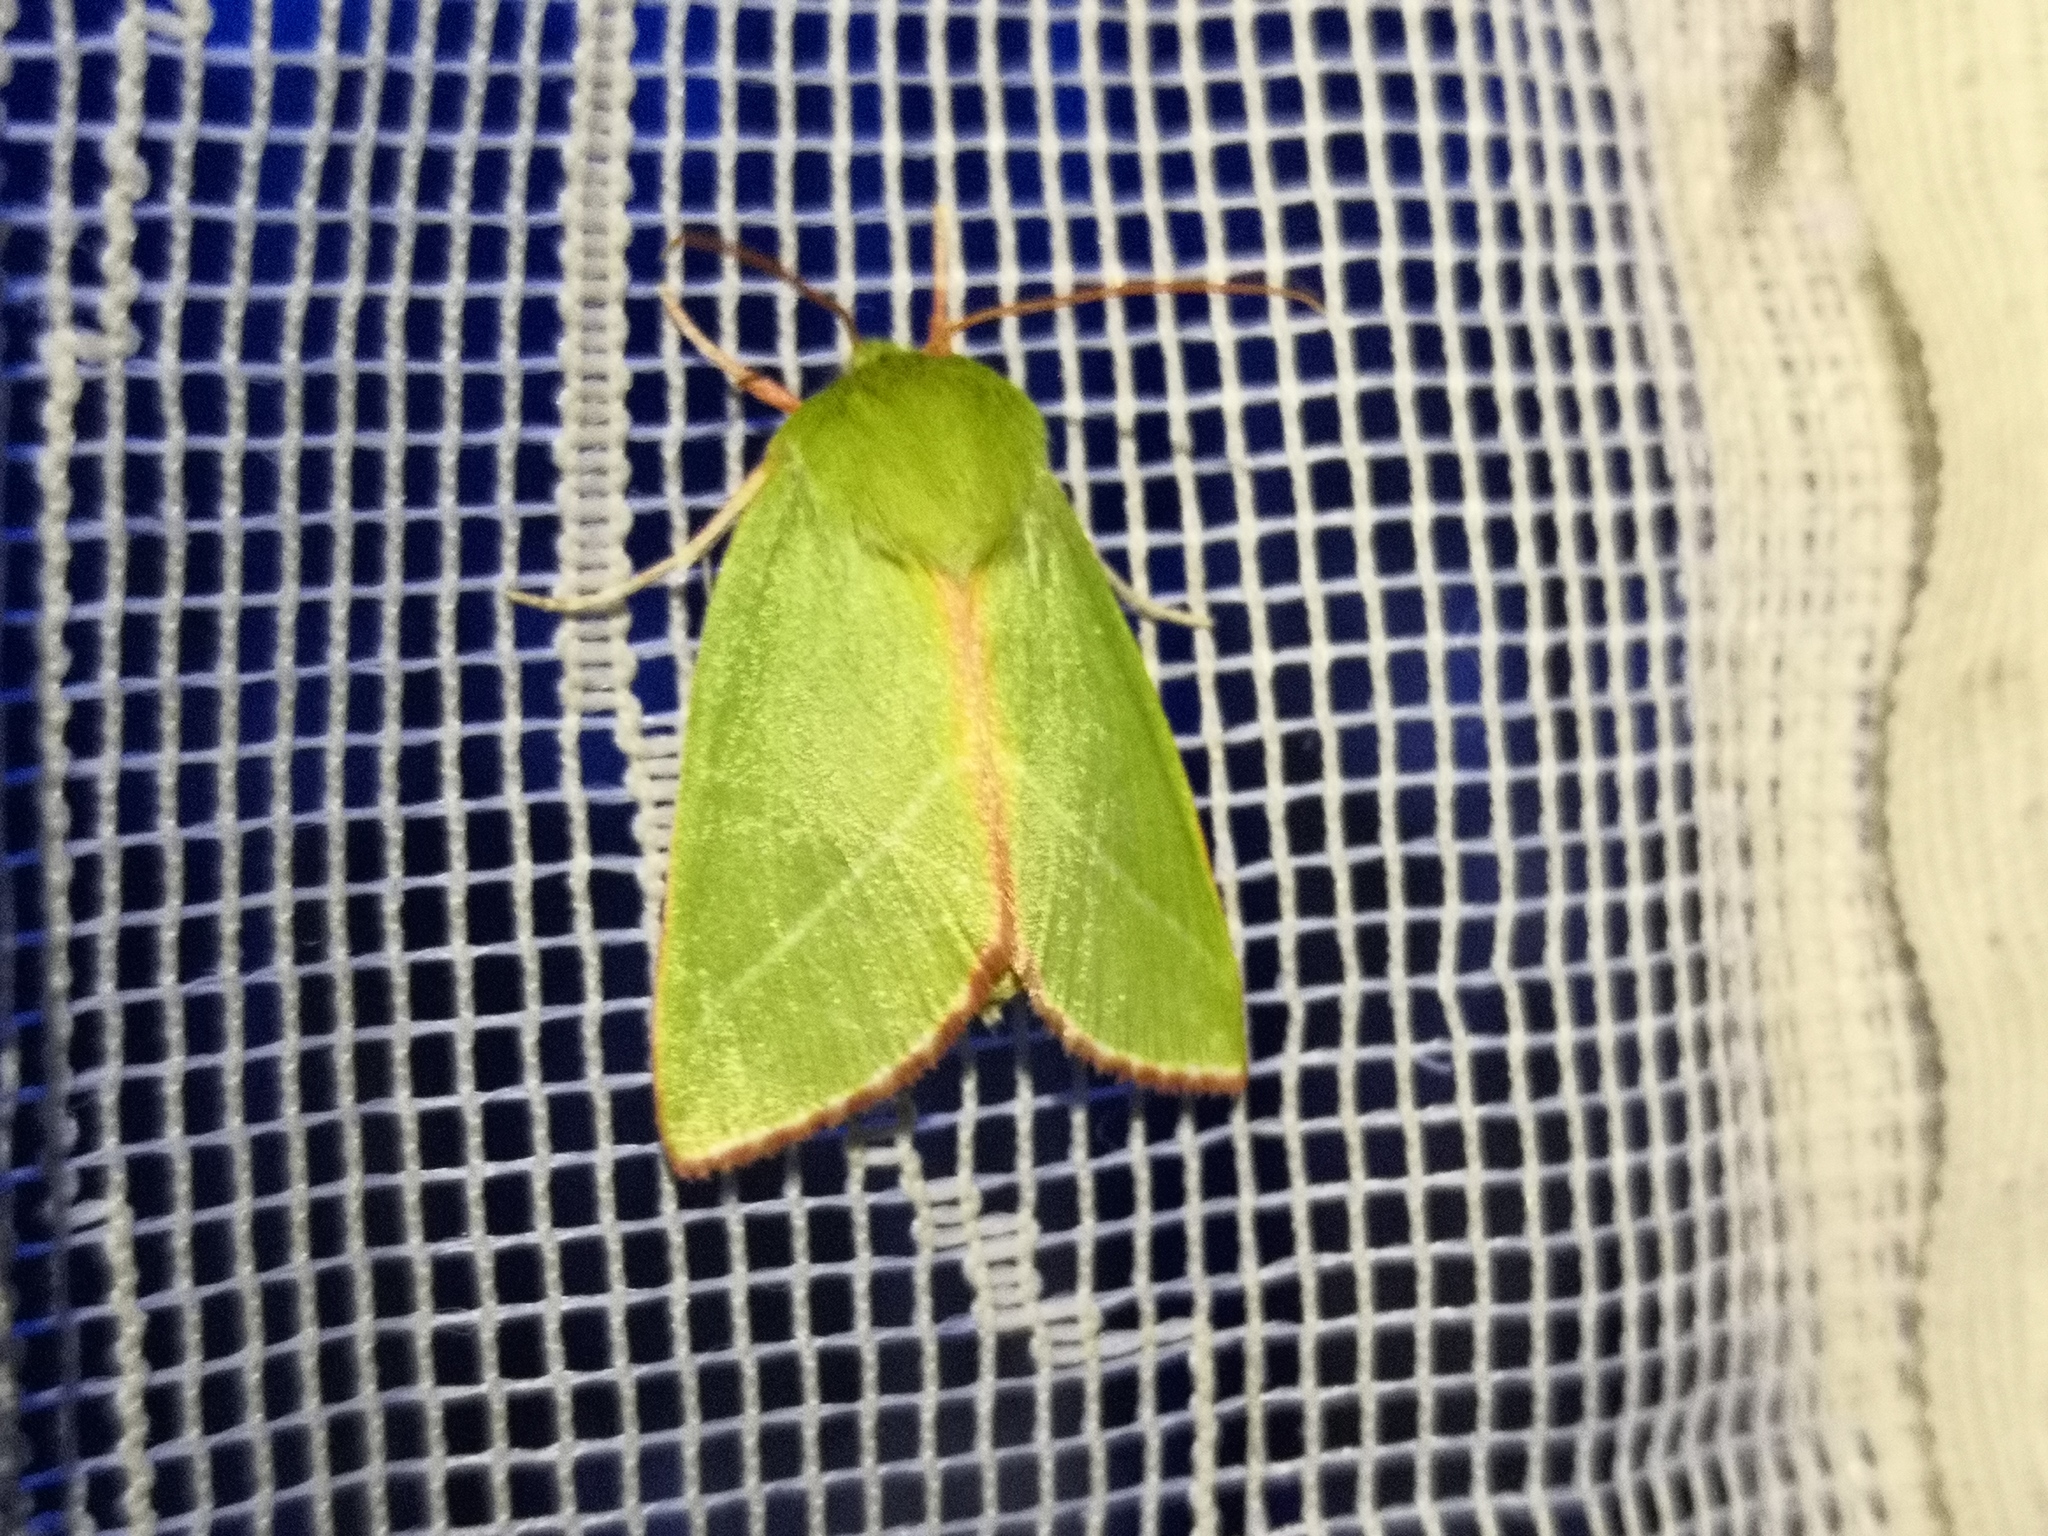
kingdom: Animalia
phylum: Arthropoda
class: Insecta
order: Lepidoptera
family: Nolidae
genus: Pseudoips
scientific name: Pseudoips prasinana
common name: Green silver-lines
